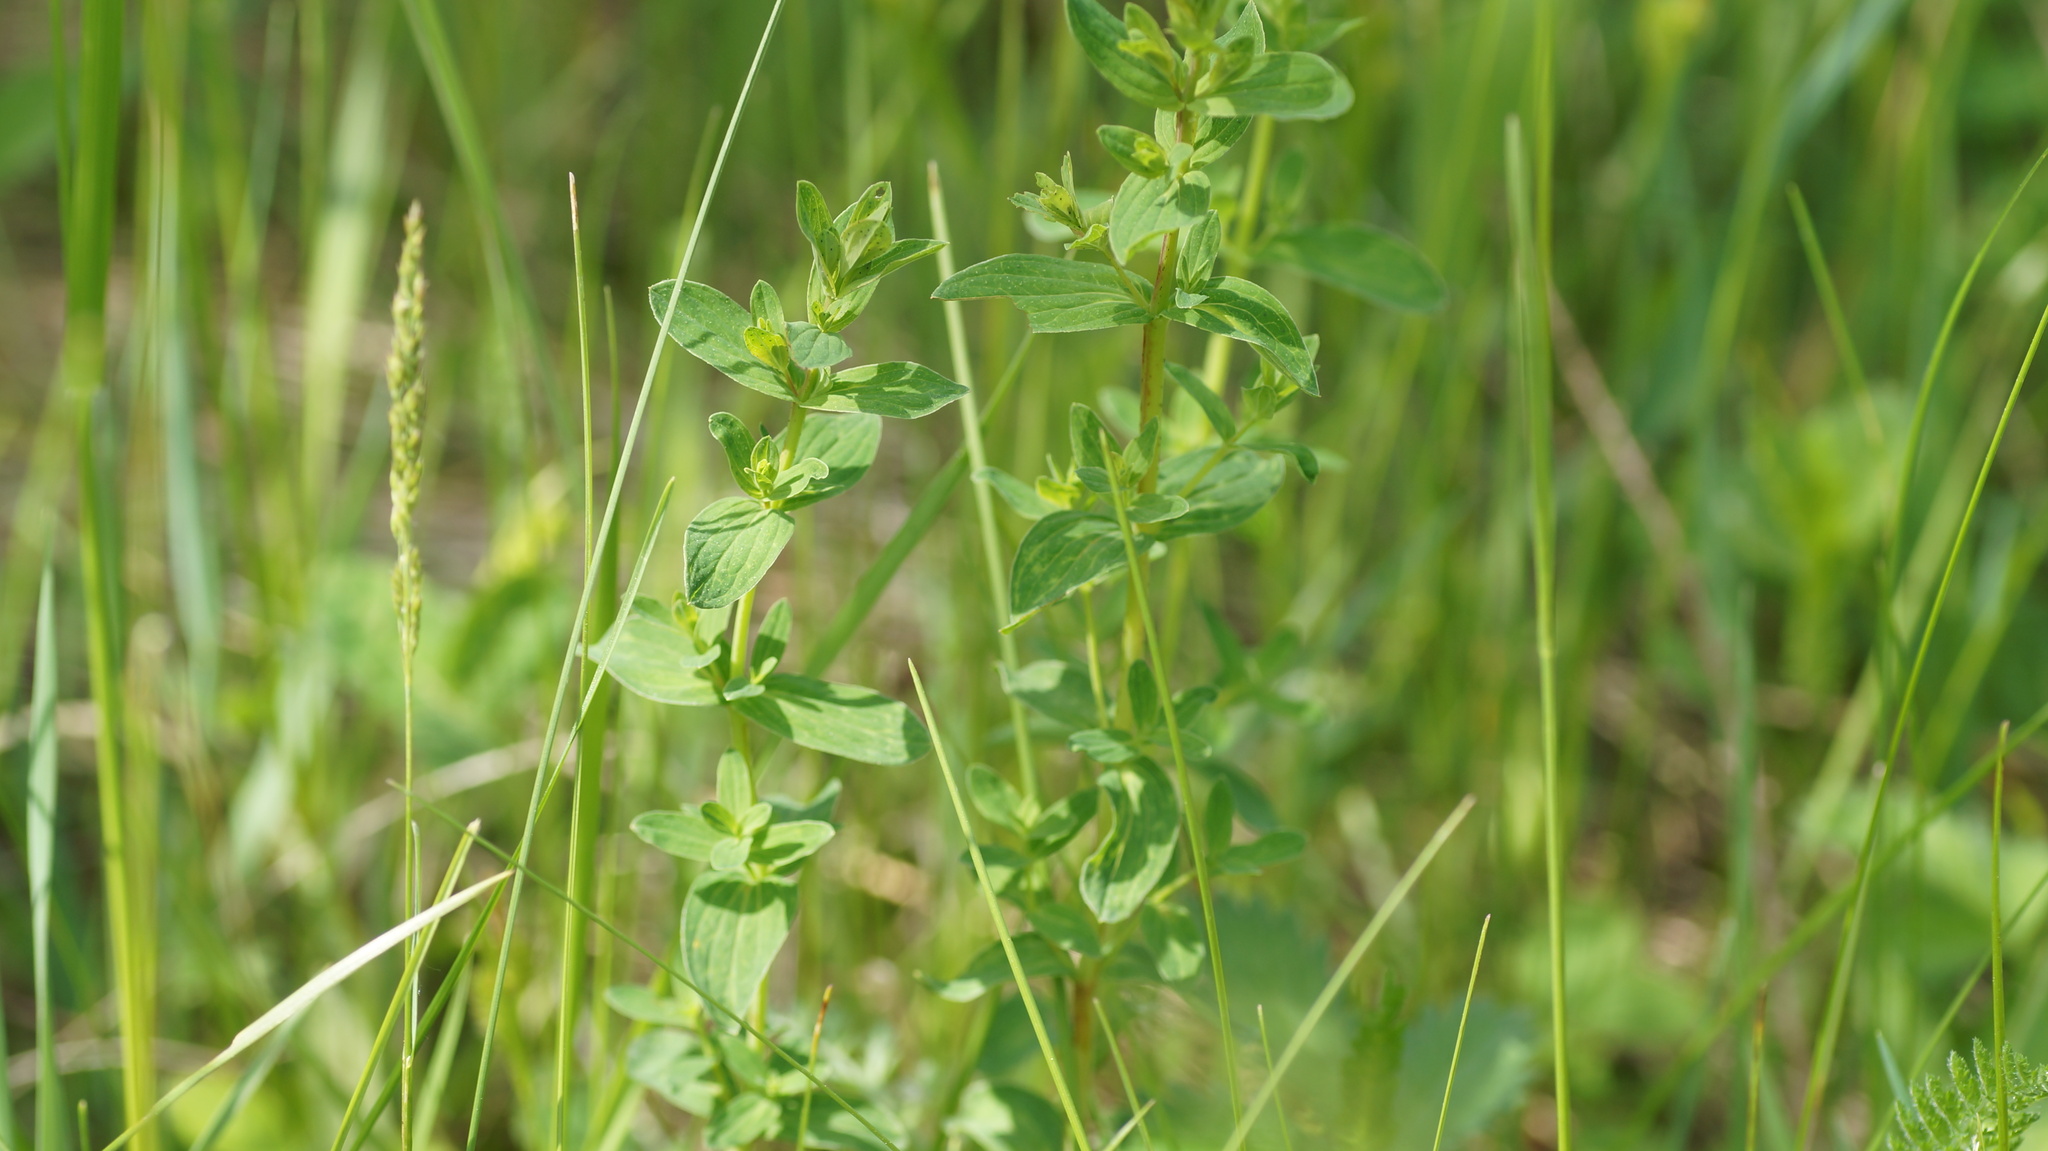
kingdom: Plantae
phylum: Tracheophyta
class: Magnoliopsida
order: Malpighiales
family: Hypericaceae
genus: Hypericum
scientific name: Hypericum perforatum
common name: Common st. johnswort
